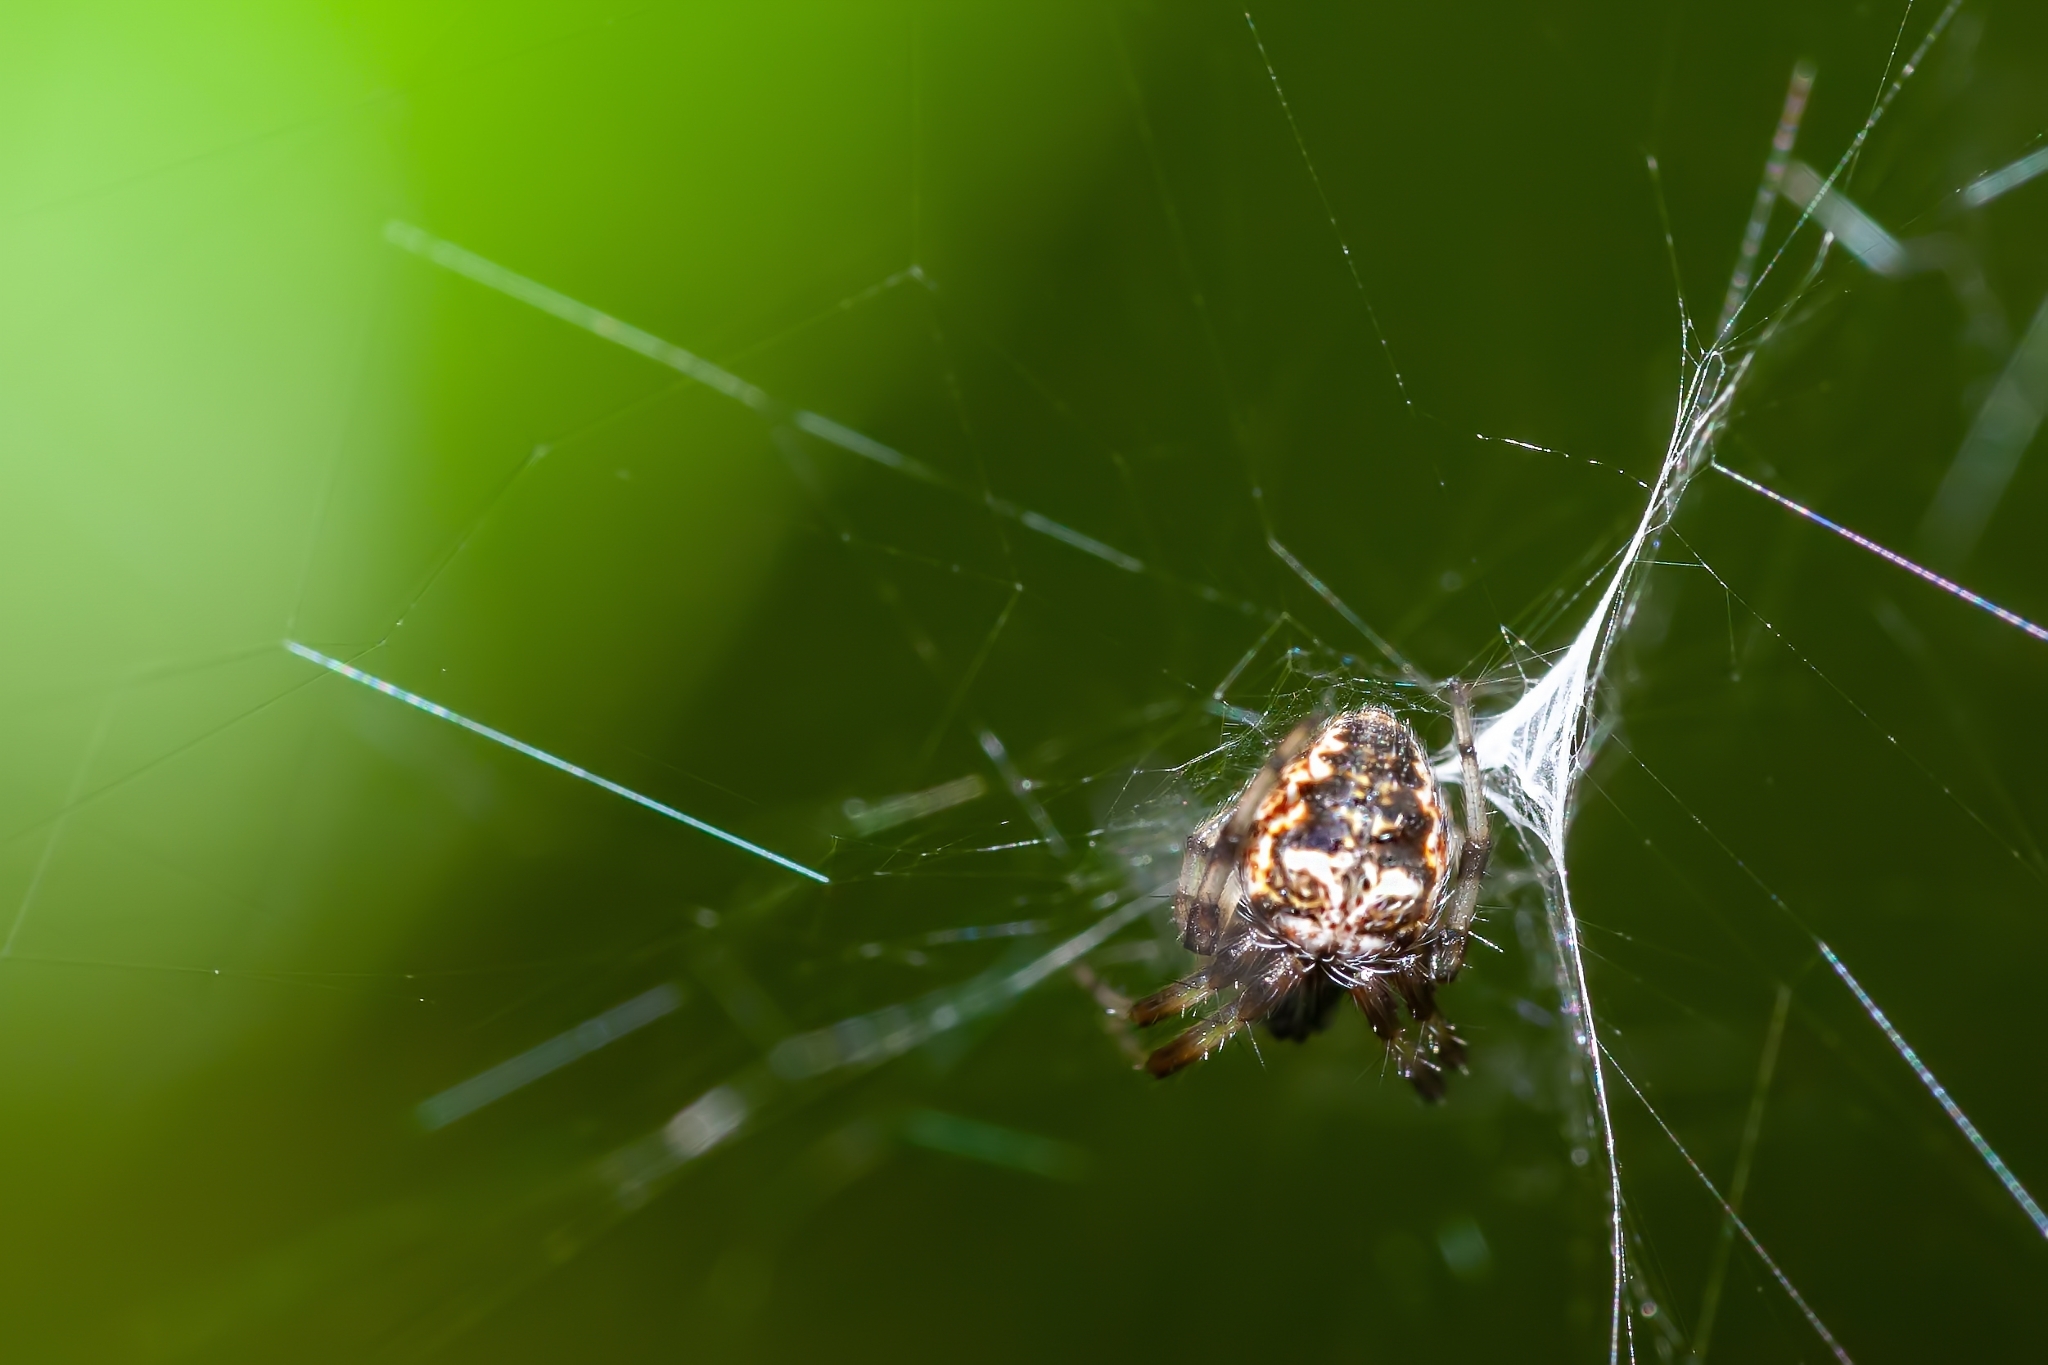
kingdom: Animalia
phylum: Arthropoda
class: Arachnida
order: Araneae
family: Araneidae
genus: Metepeira
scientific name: Metepeira labyrinthea
